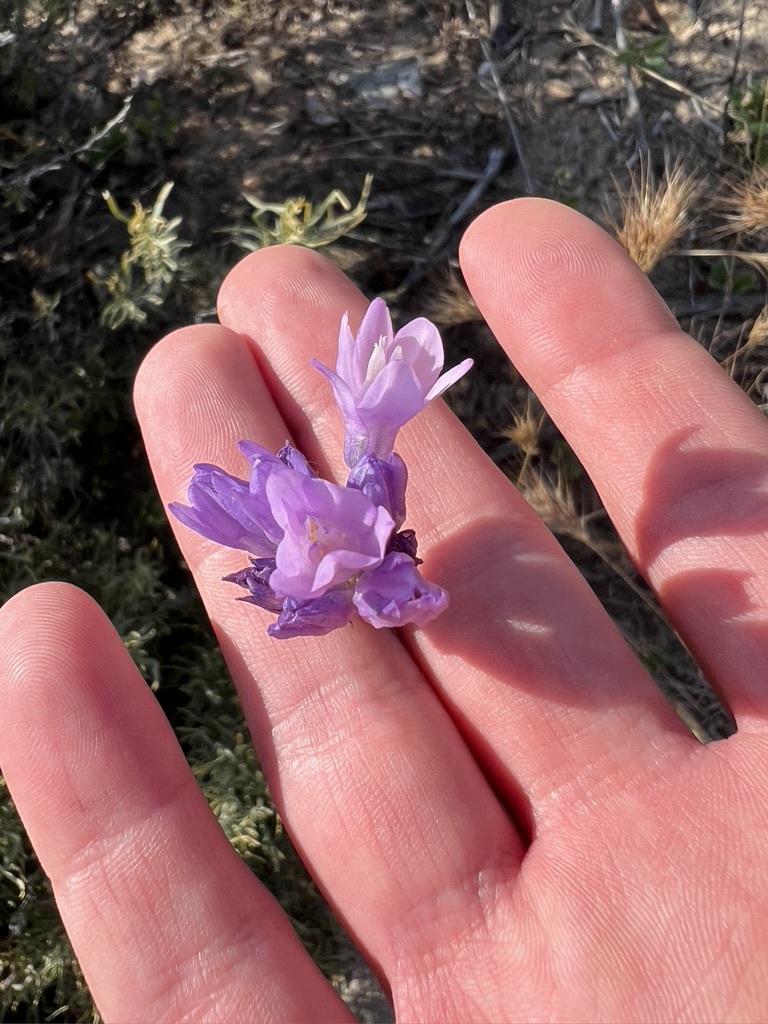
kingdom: Plantae
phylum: Tracheophyta
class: Liliopsida
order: Asparagales
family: Asparagaceae
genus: Dipterostemon
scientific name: Dipterostemon capitatus
